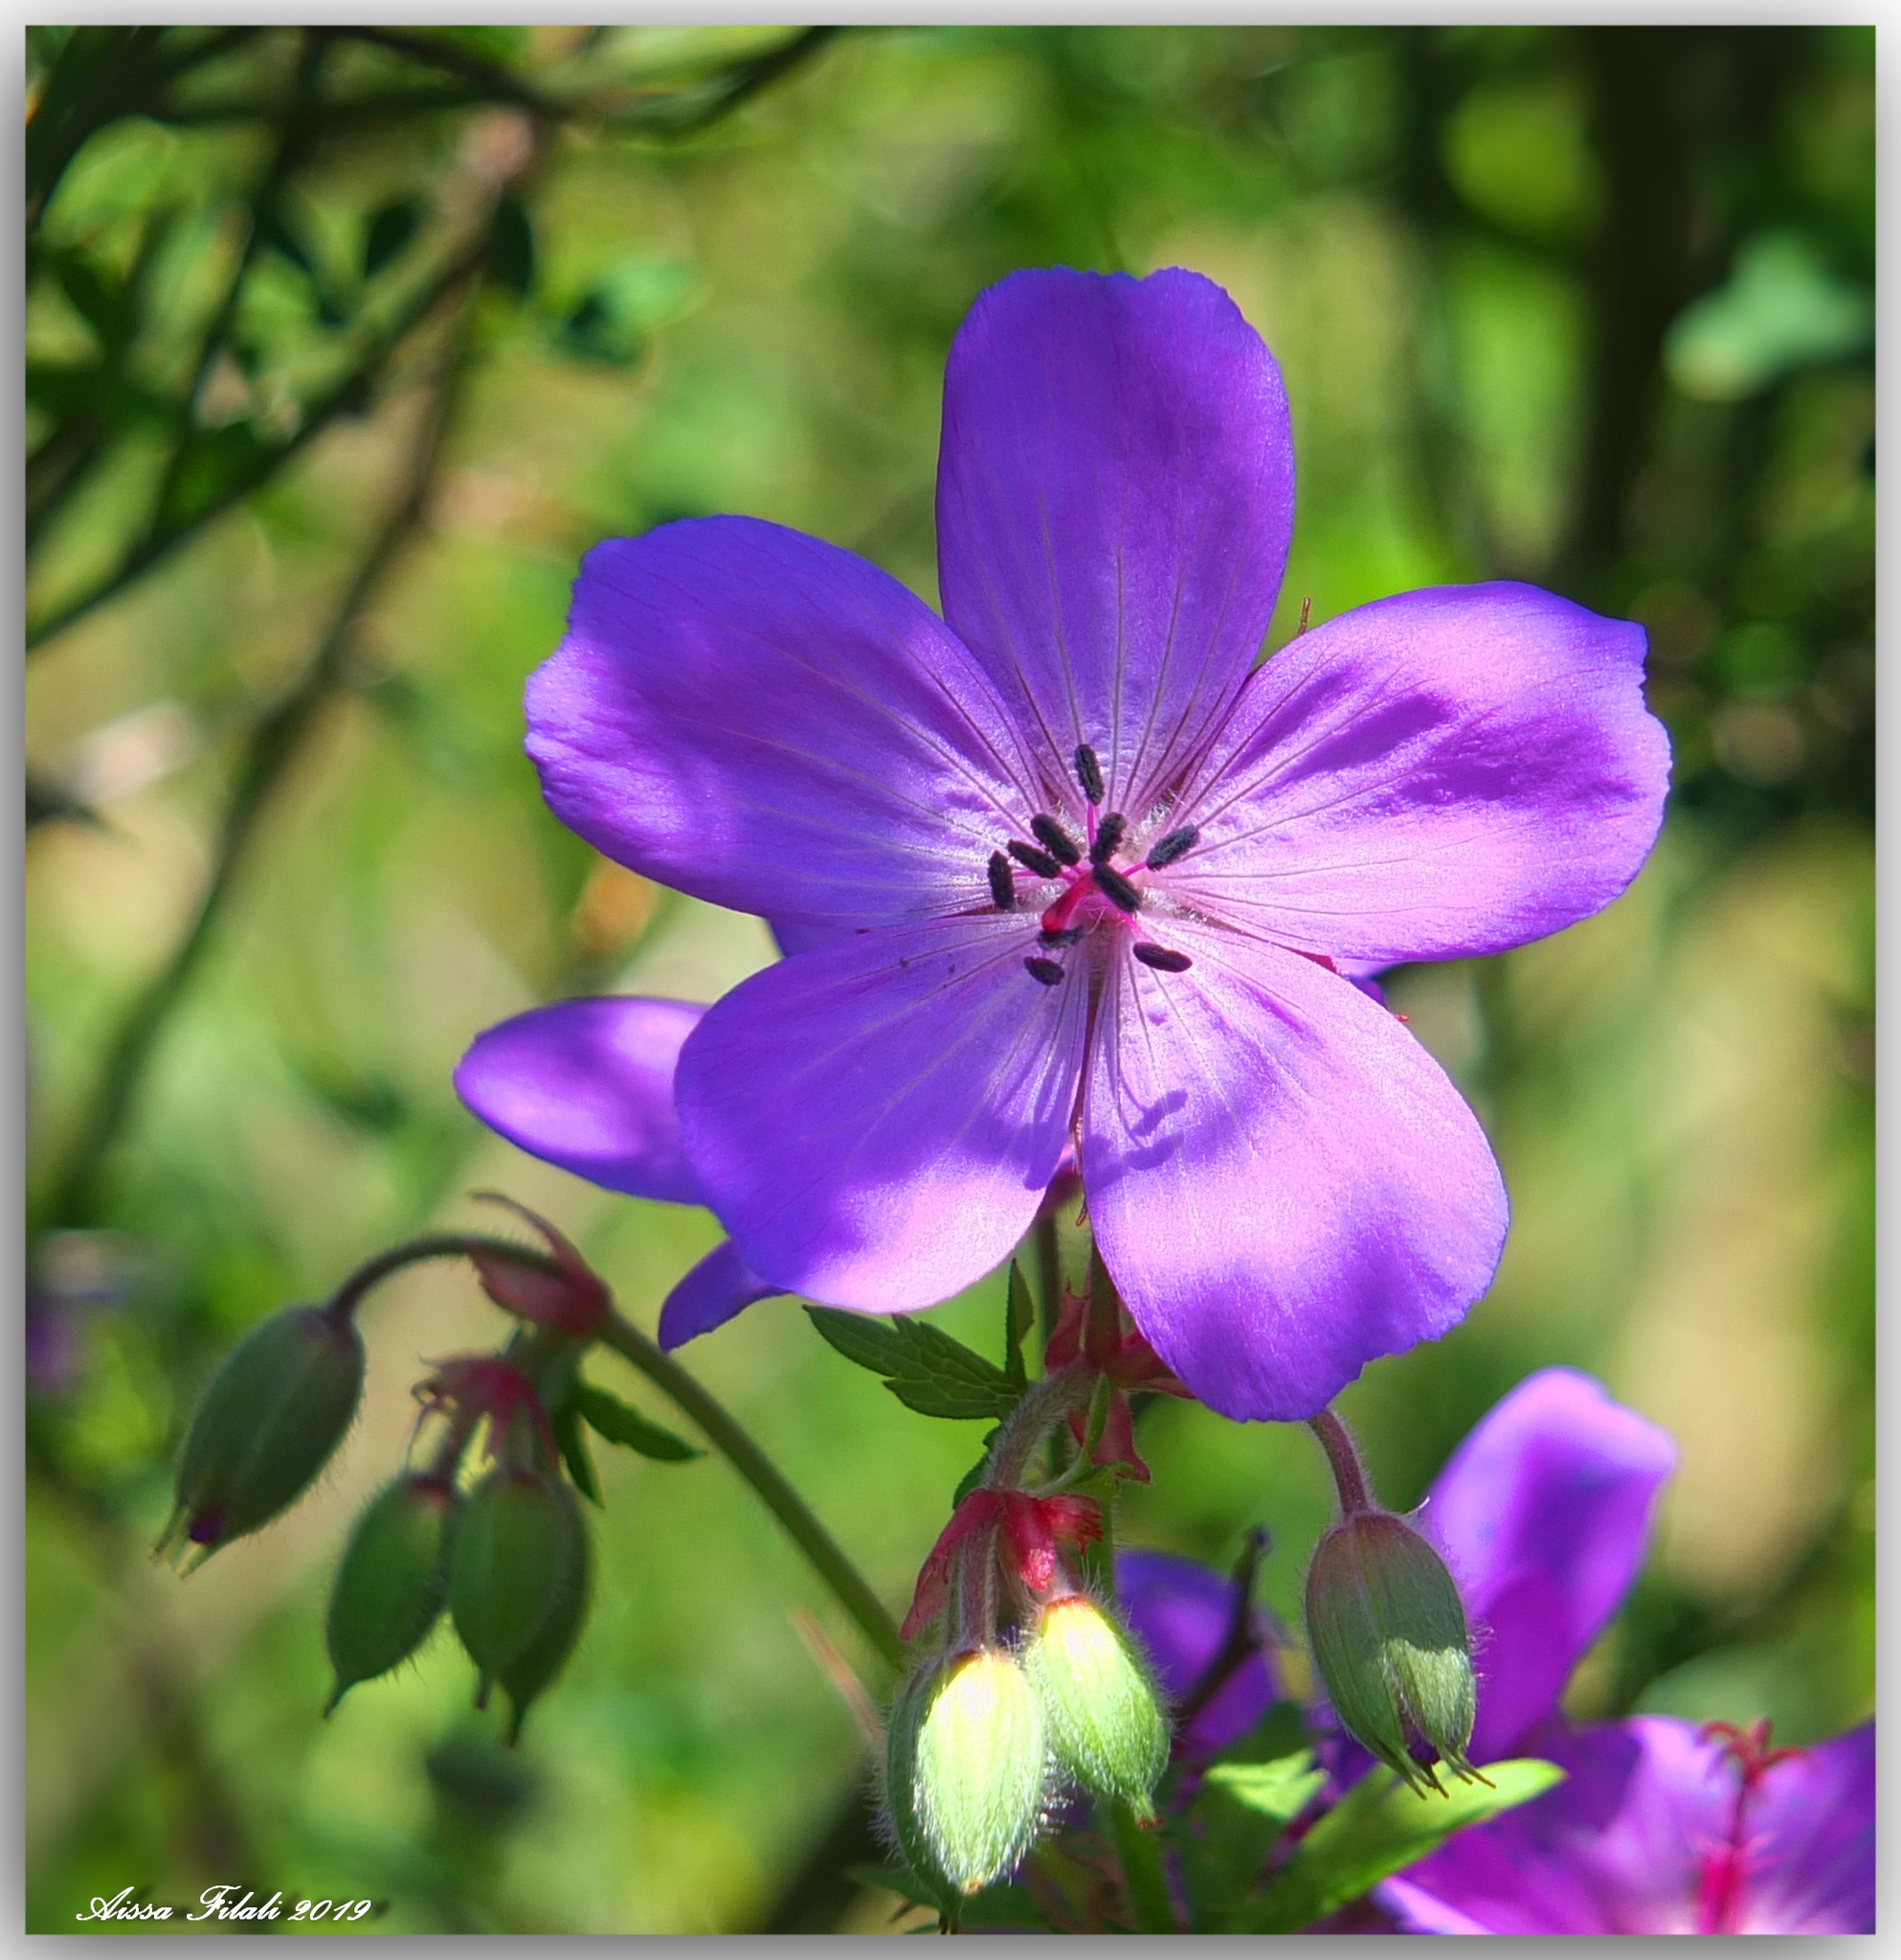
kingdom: Plantae
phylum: Tracheophyta
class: Magnoliopsida
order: Geraniales
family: Geraniaceae
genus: Geranium
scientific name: Geranium atlanticum
